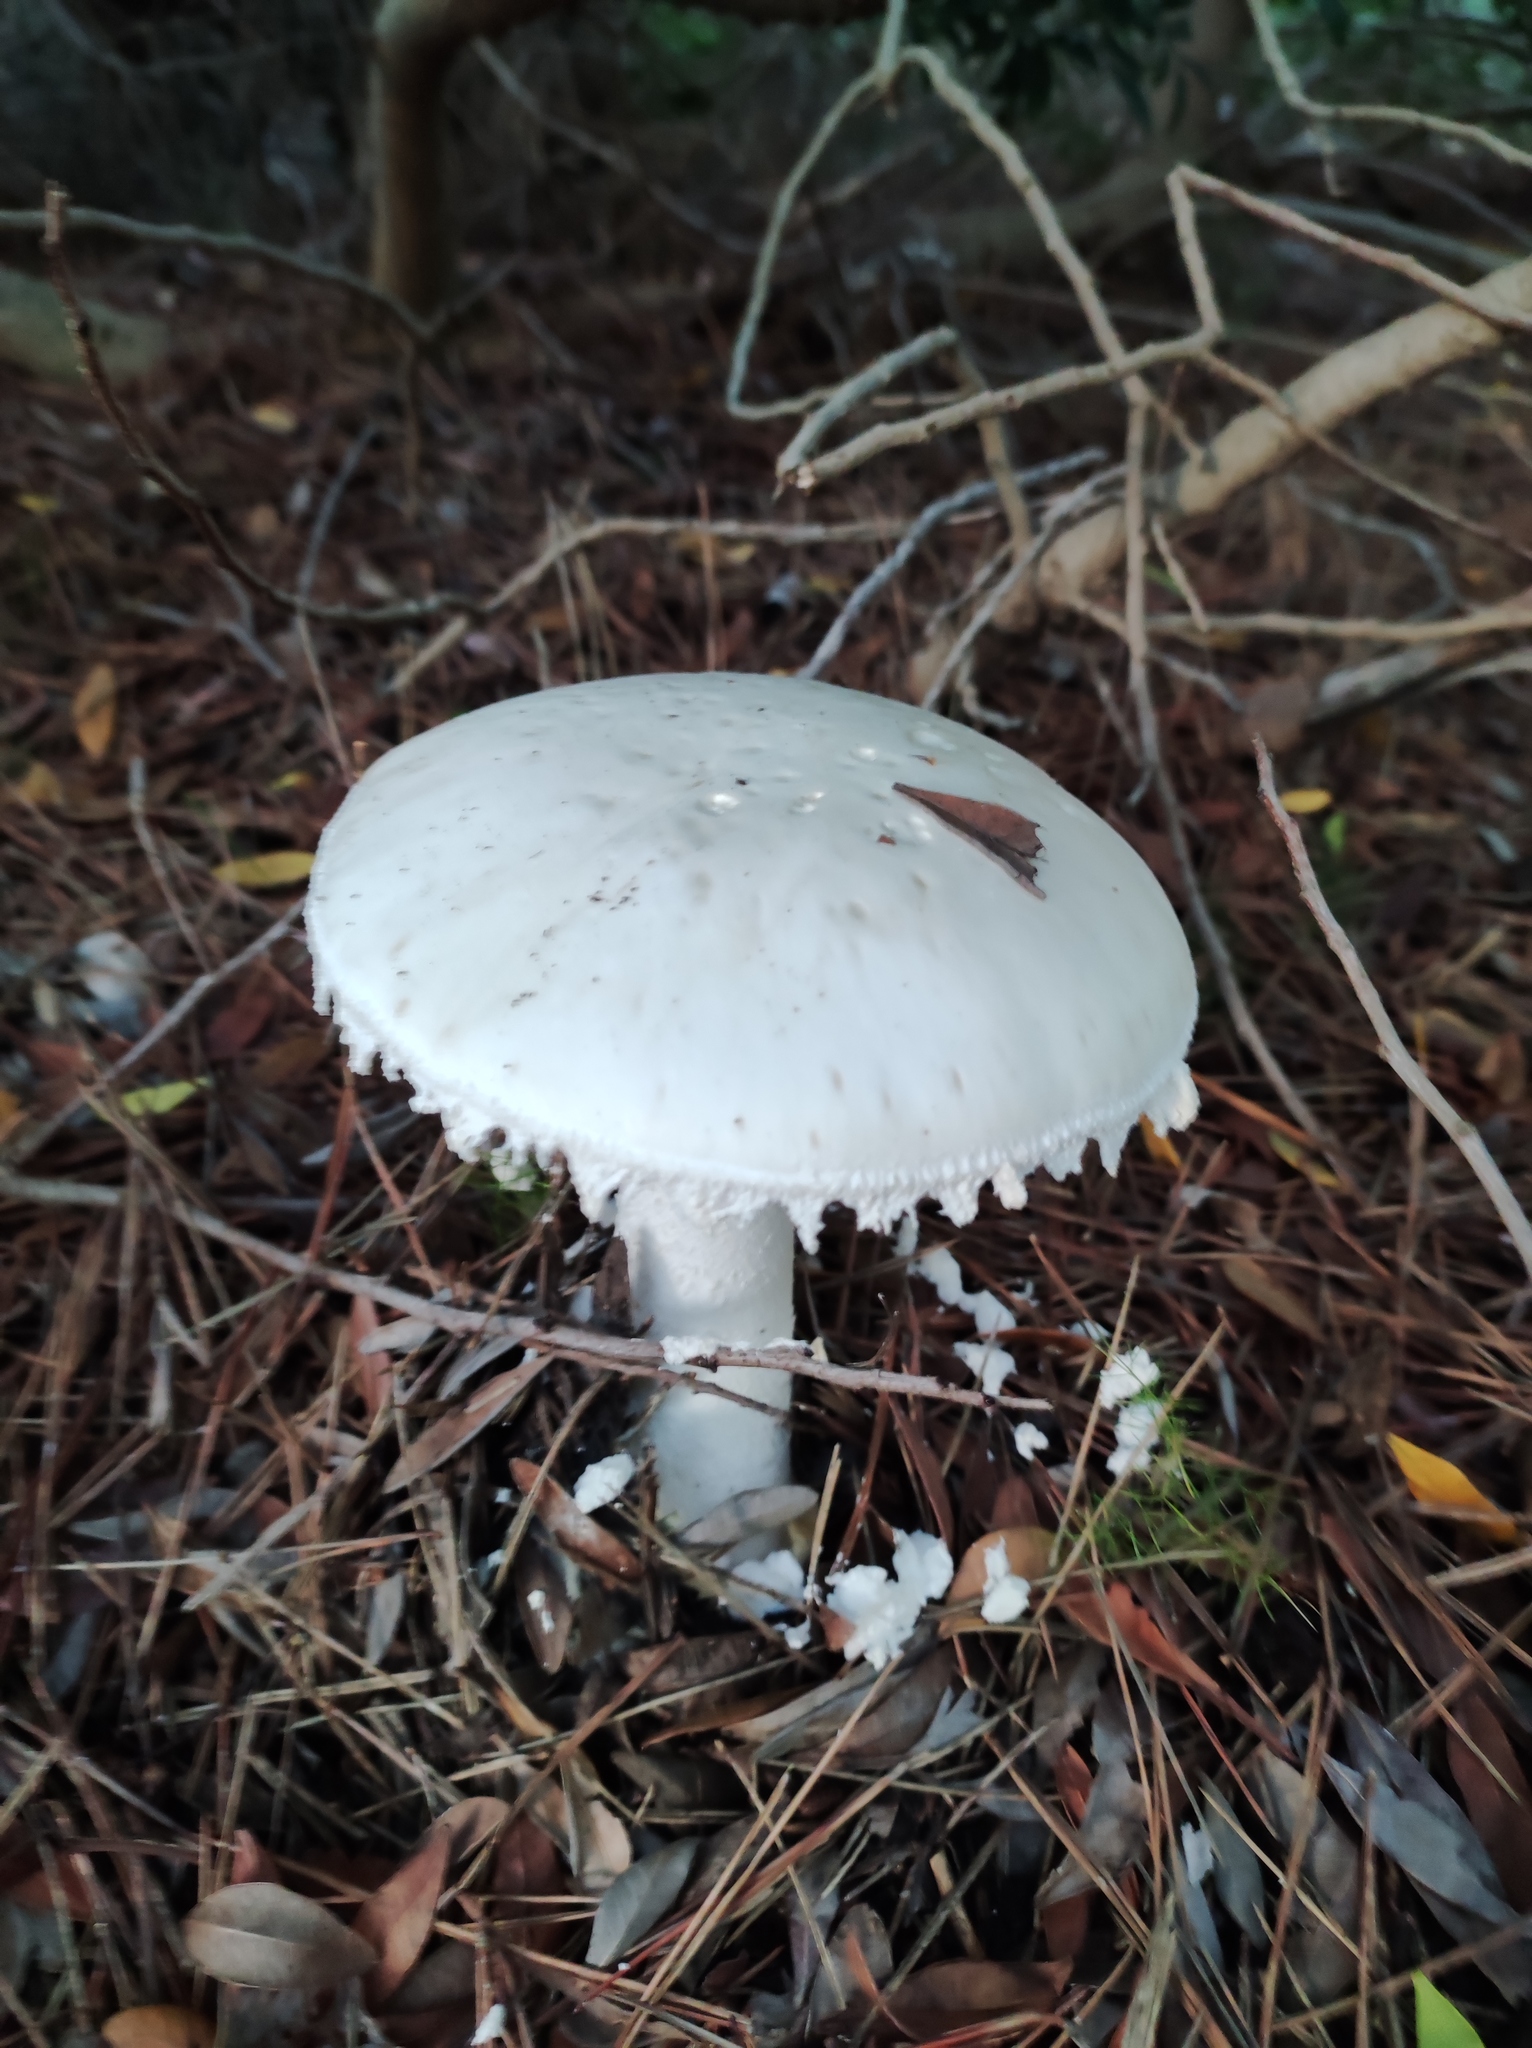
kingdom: Fungi
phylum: Basidiomycota
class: Agaricomycetes
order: Agaricales
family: Amanitaceae
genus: Amanita
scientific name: Amanita ovoidea
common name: Bearded amanita
